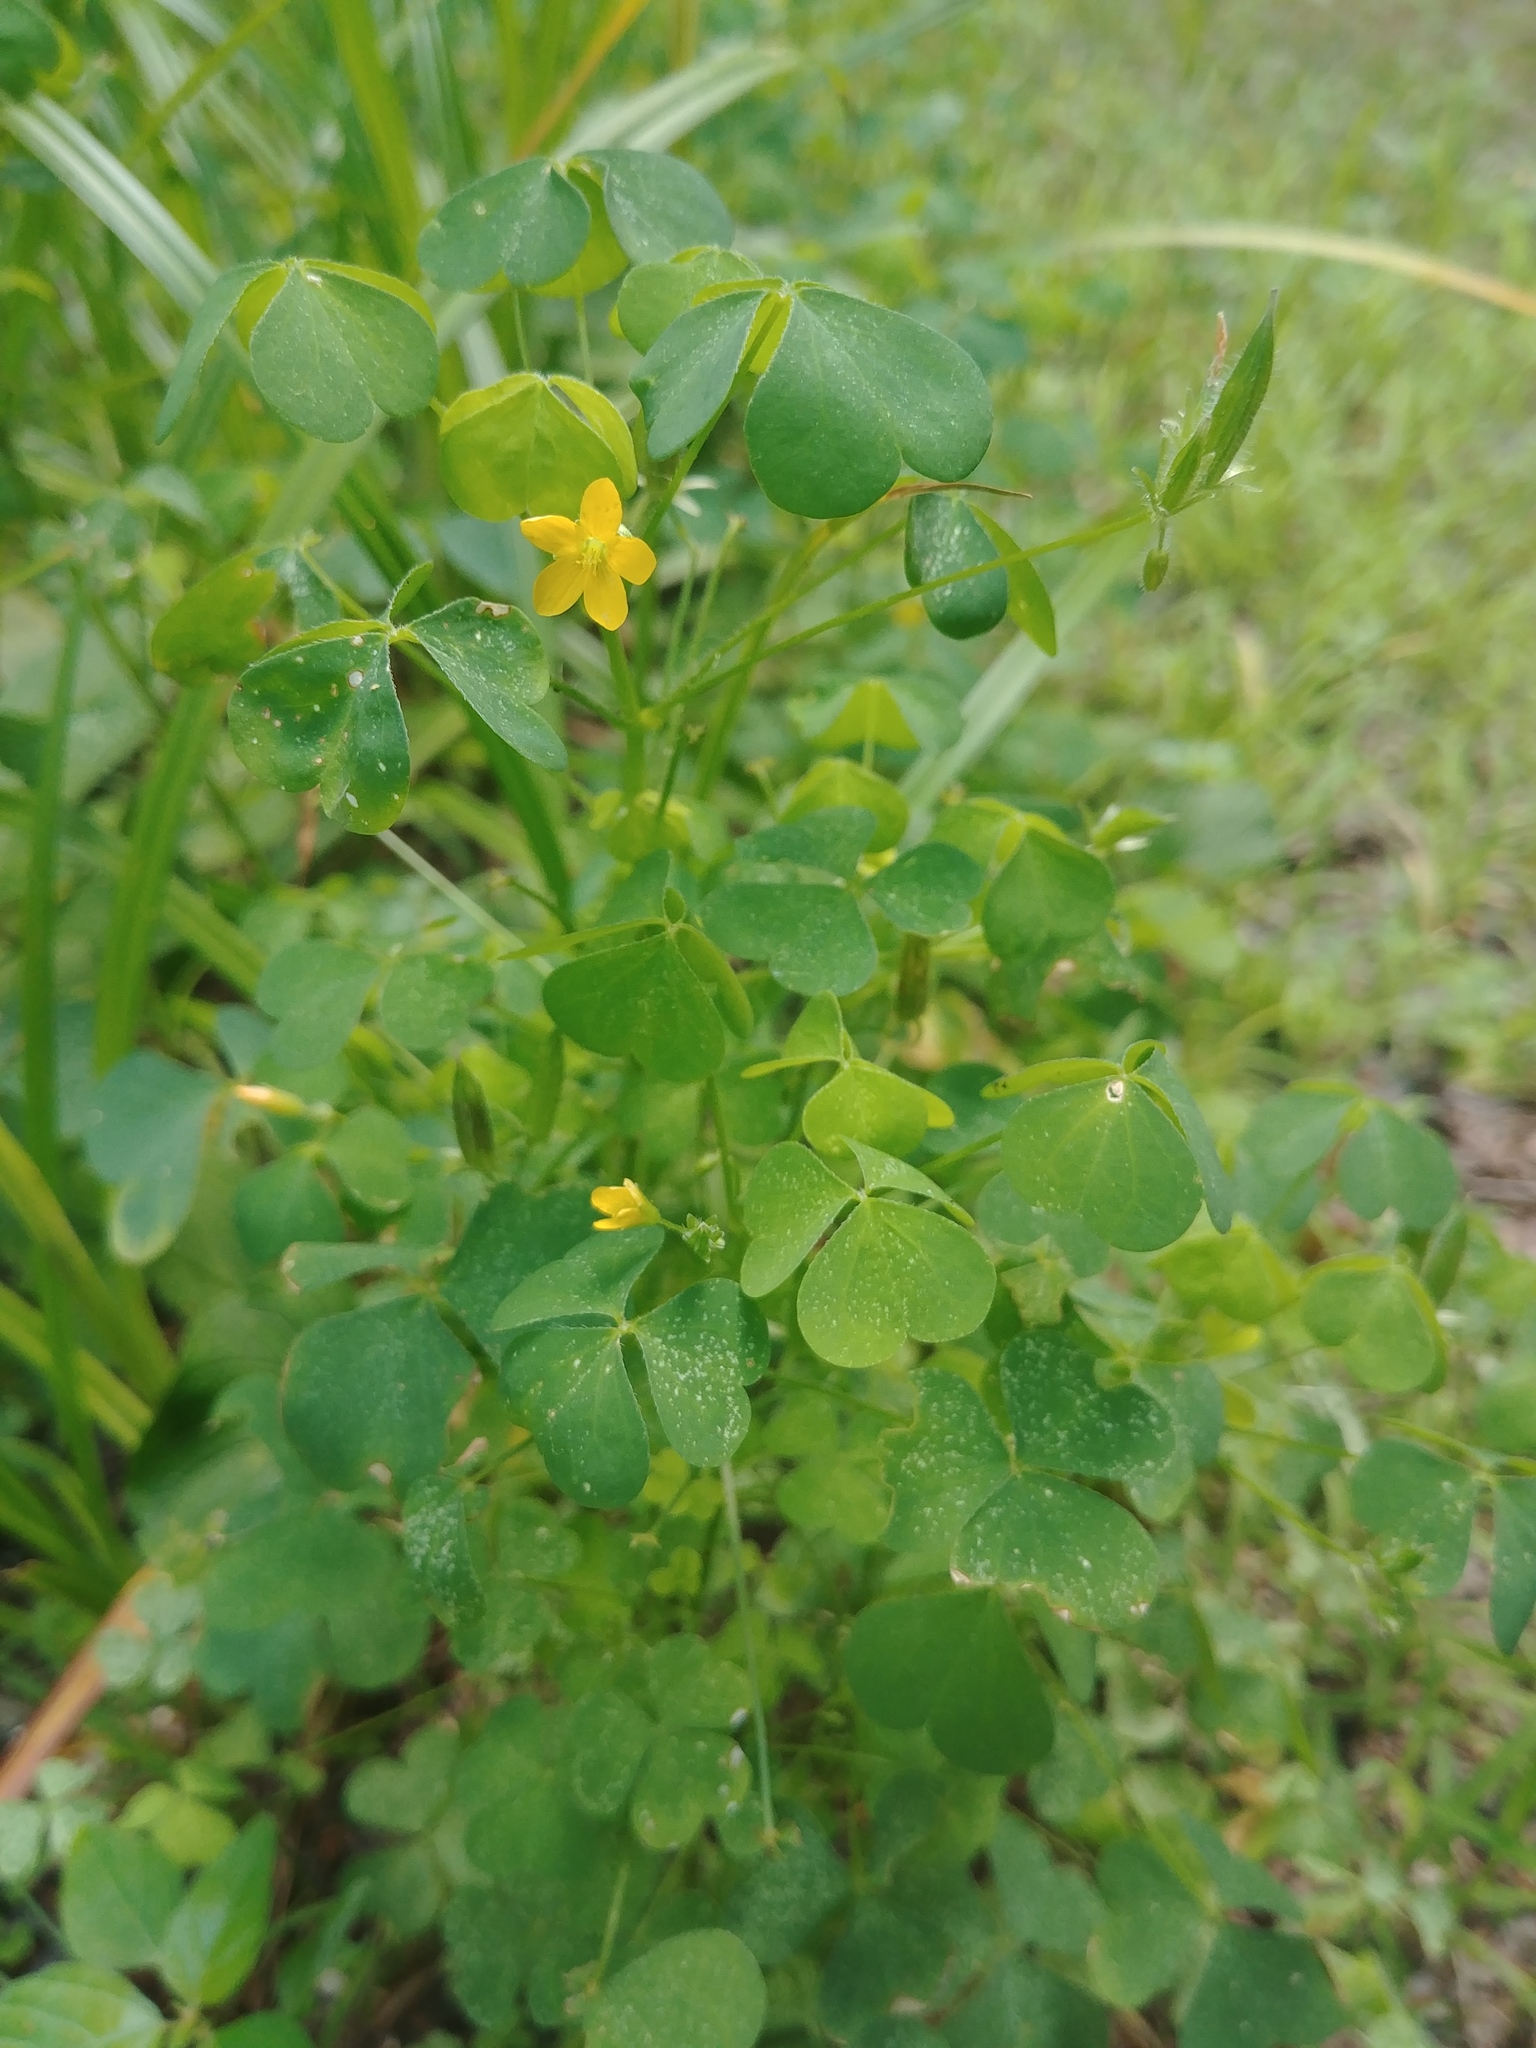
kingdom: Plantae
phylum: Tracheophyta
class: Magnoliopsida
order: Oxalidales
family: Oxalidaceae
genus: Oxalis
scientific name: Oxalis stricta
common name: Upright yellow-sorrel
